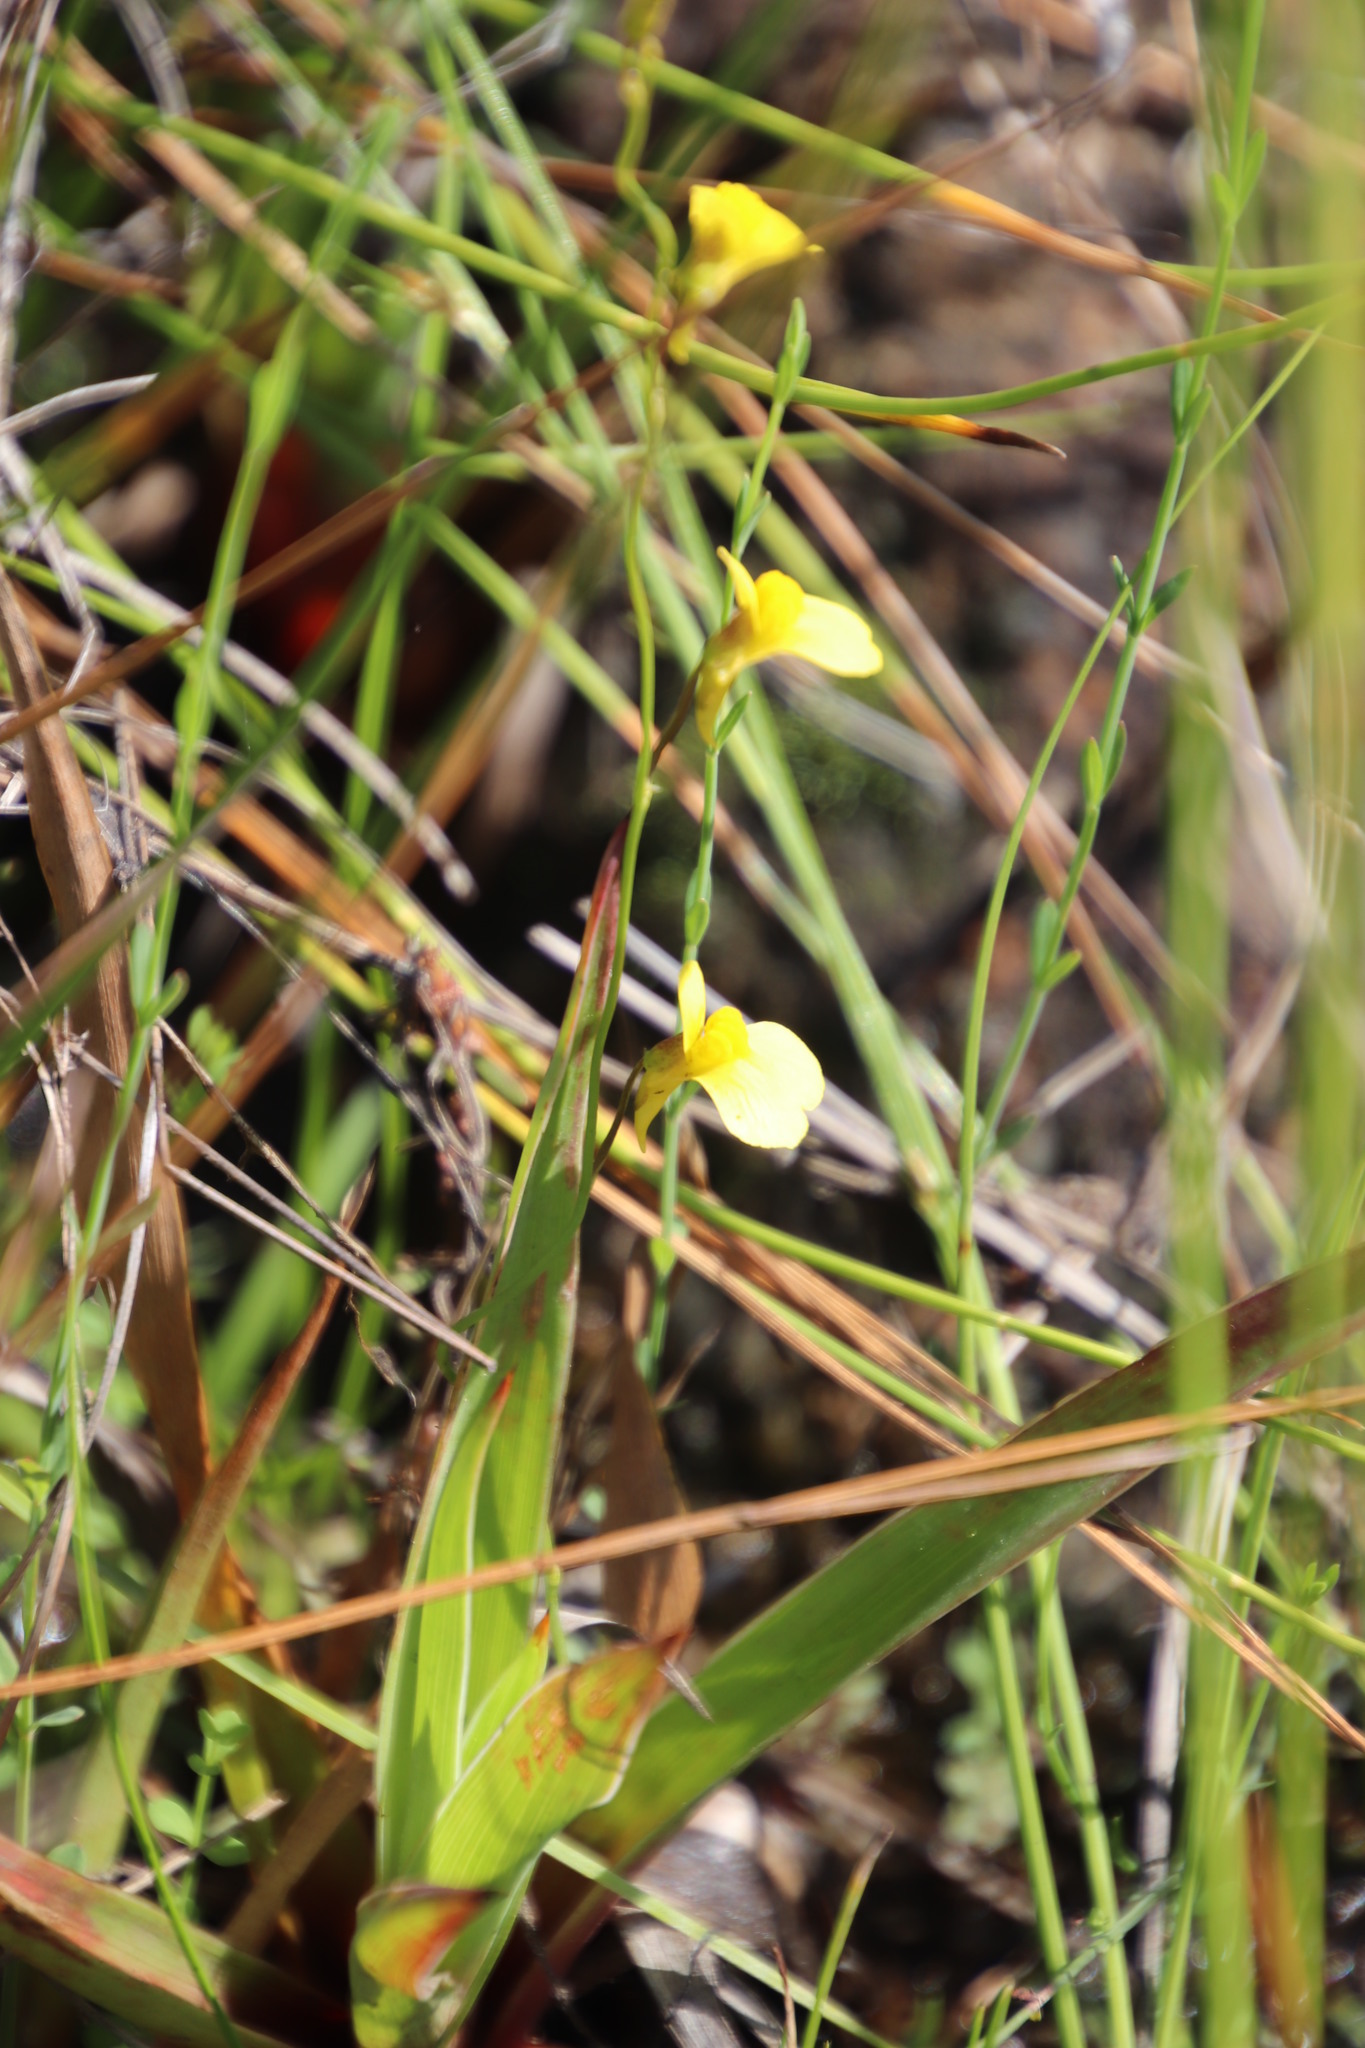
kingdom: Plantae
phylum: Tracheophyta
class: Magnoliopsida
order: Lamiales
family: Lentibulariaceae
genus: Utricularia
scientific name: Utricularia prehensilis
